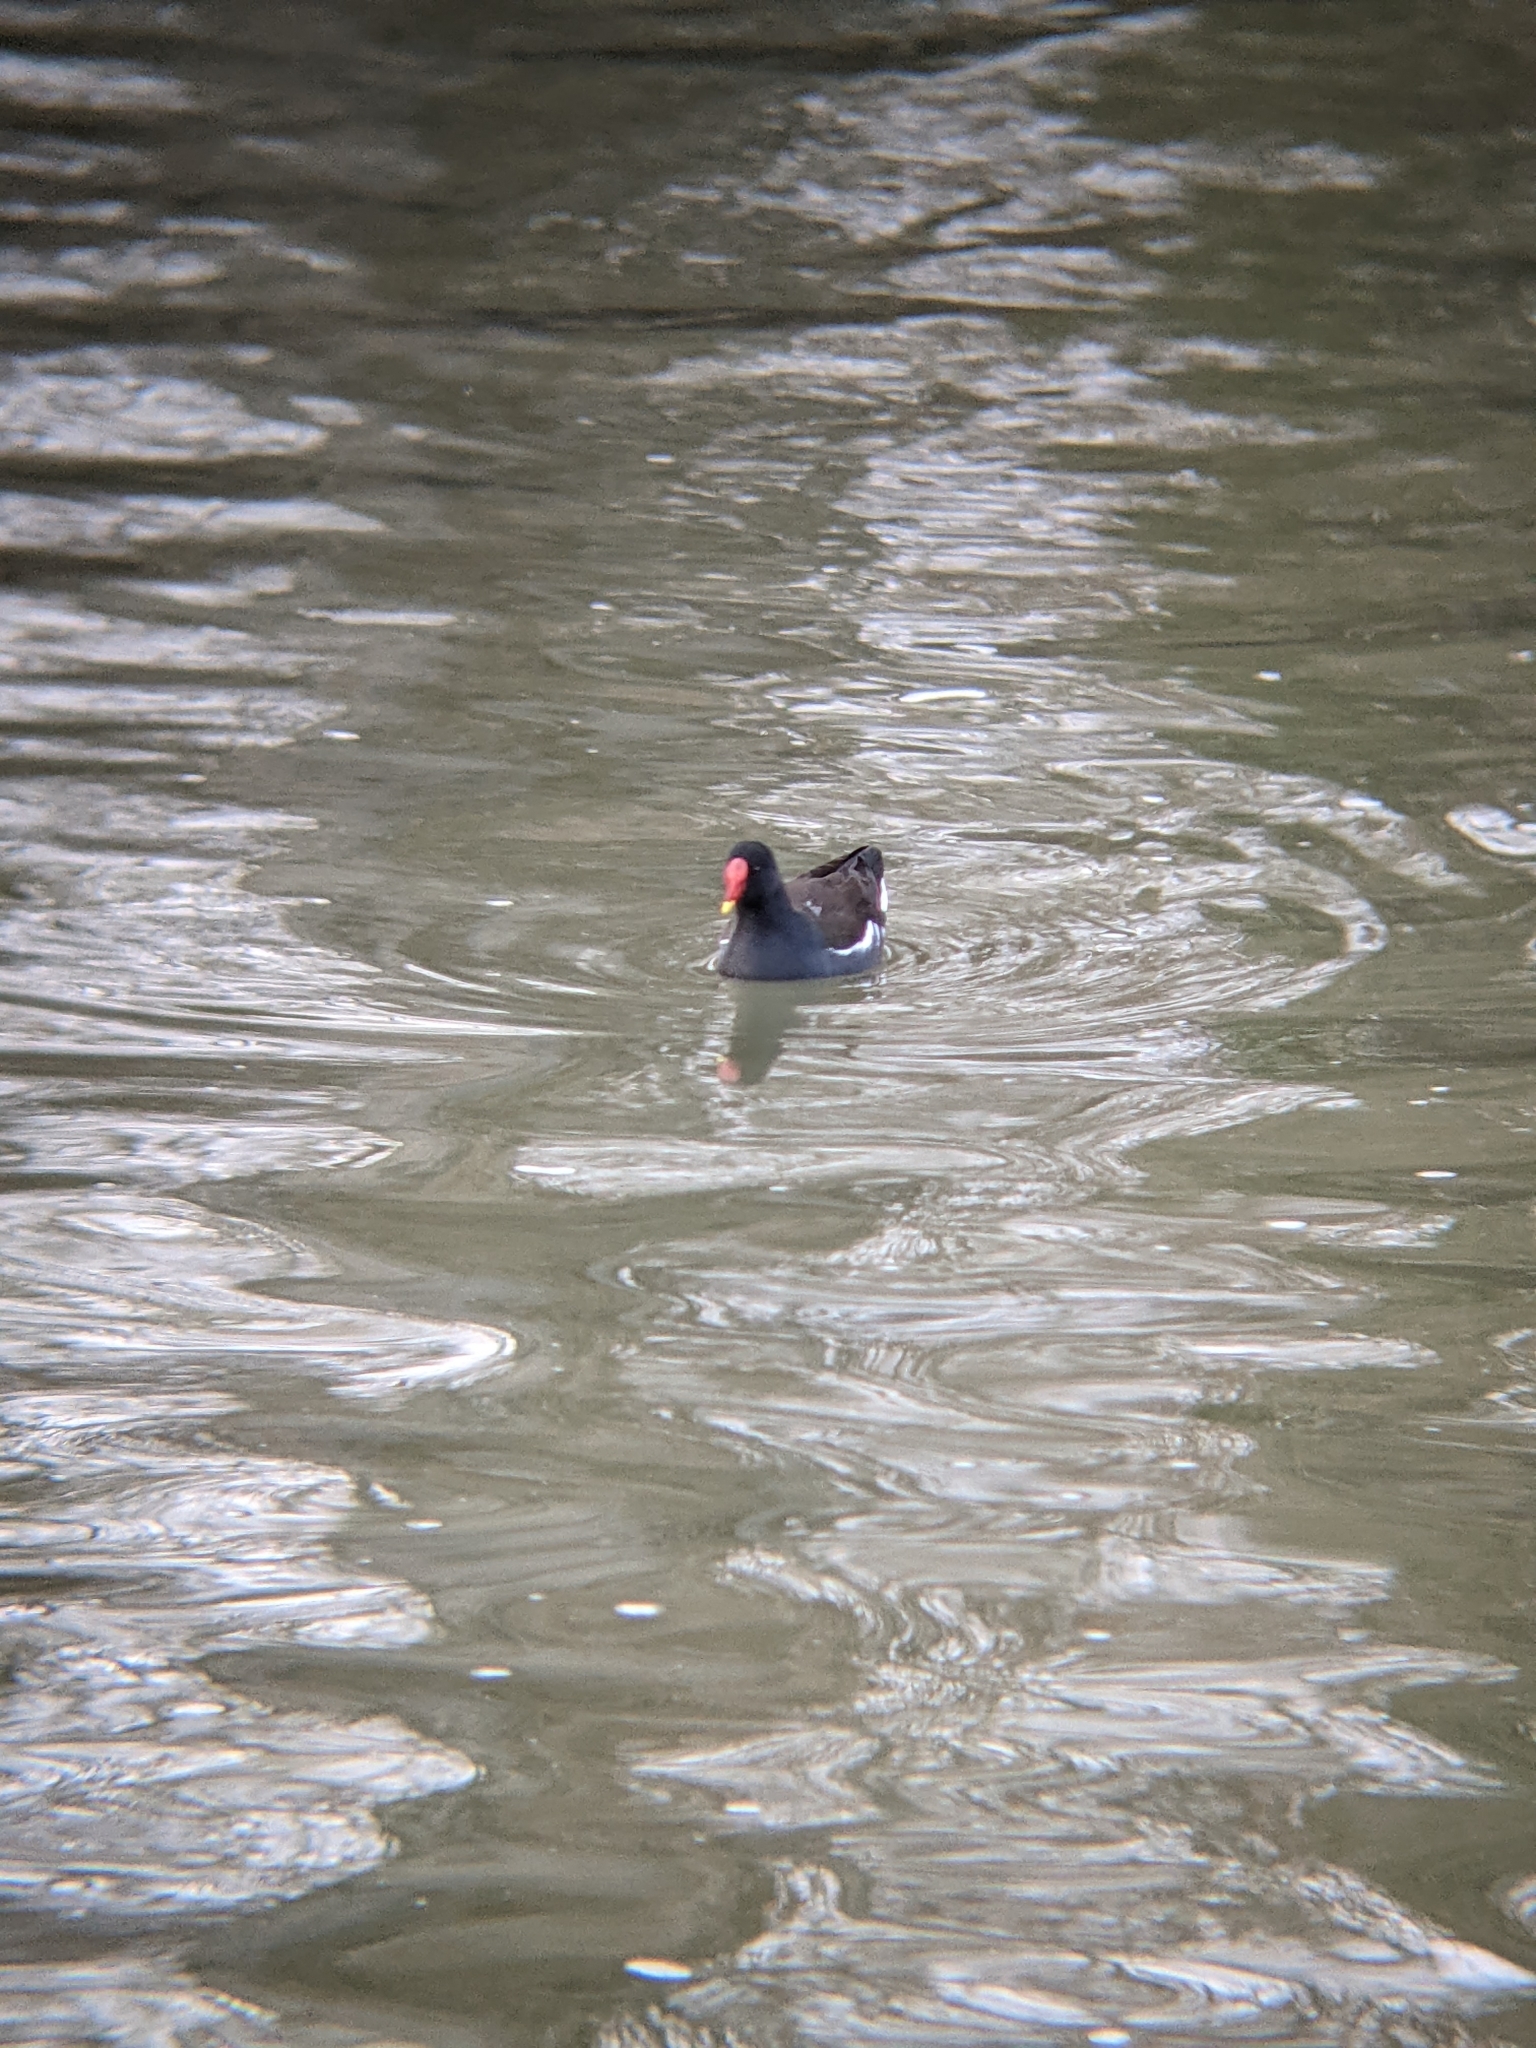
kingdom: Animalia
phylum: Chordata
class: Aves
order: Gruiformes
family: Rallidae
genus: Gallinula
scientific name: Gallinula chloropus
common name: Common moorhen
